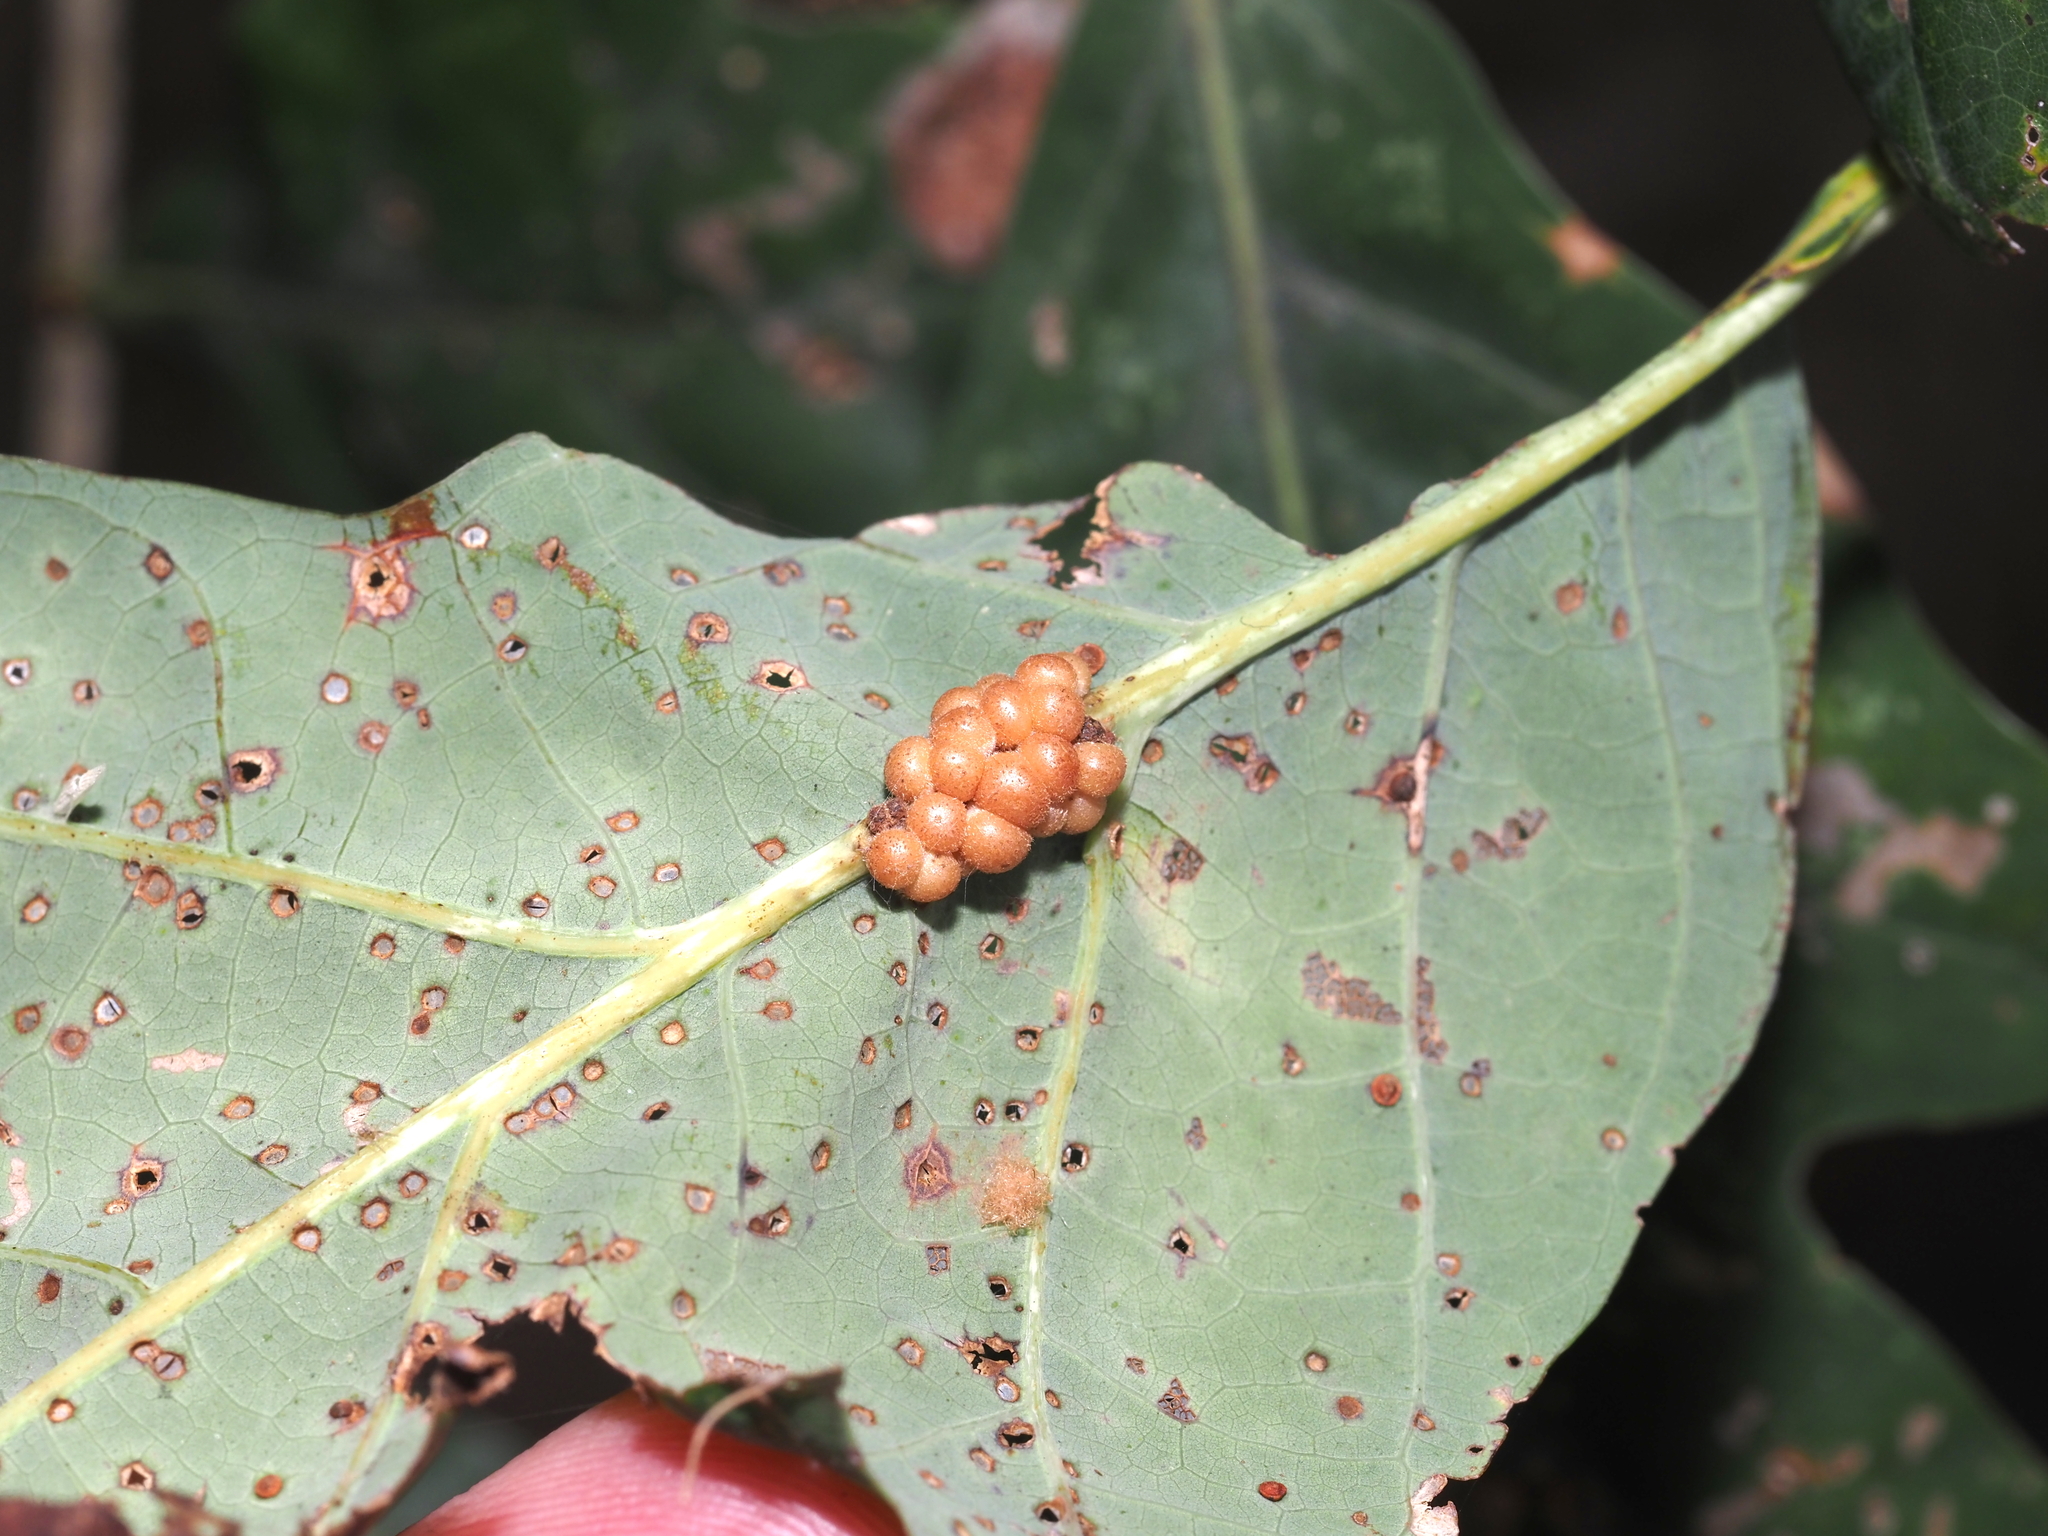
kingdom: Animalia
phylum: Arthropoda
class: Insecta
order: Hymenoptera
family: Cynipidae
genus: Andricus
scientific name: Andricus
